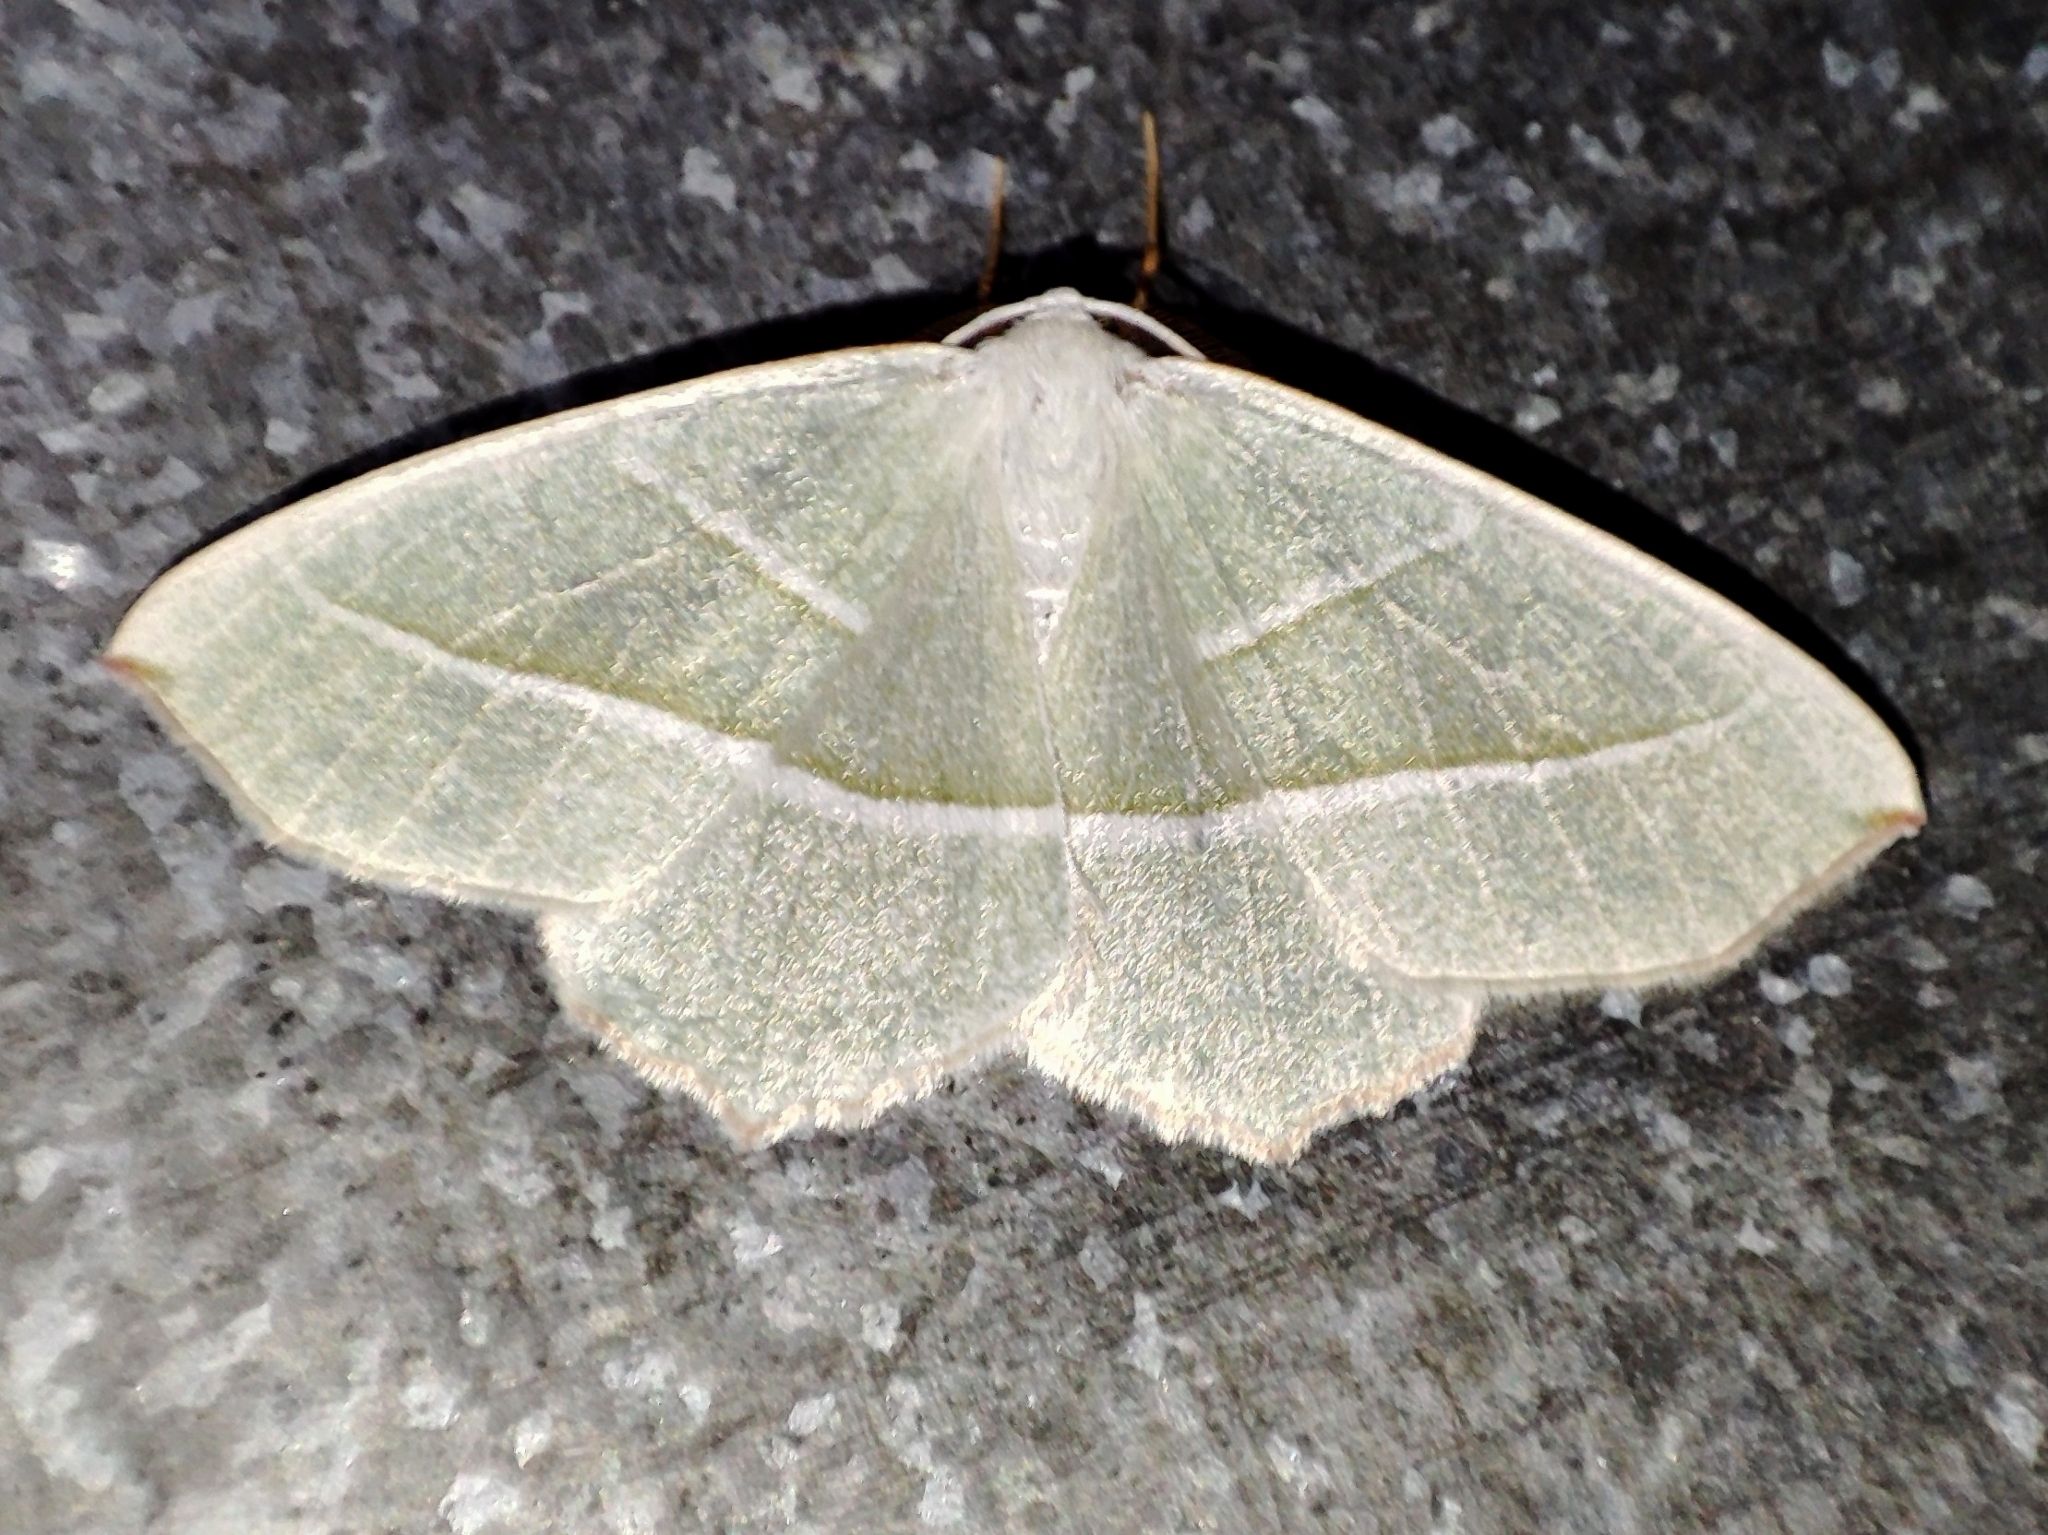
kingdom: Animalia
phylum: Arthropoda
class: Insecta
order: Lepidoptera
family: Geometridae
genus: Campaea
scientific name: Campaea margaritaria
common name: Light emerald
